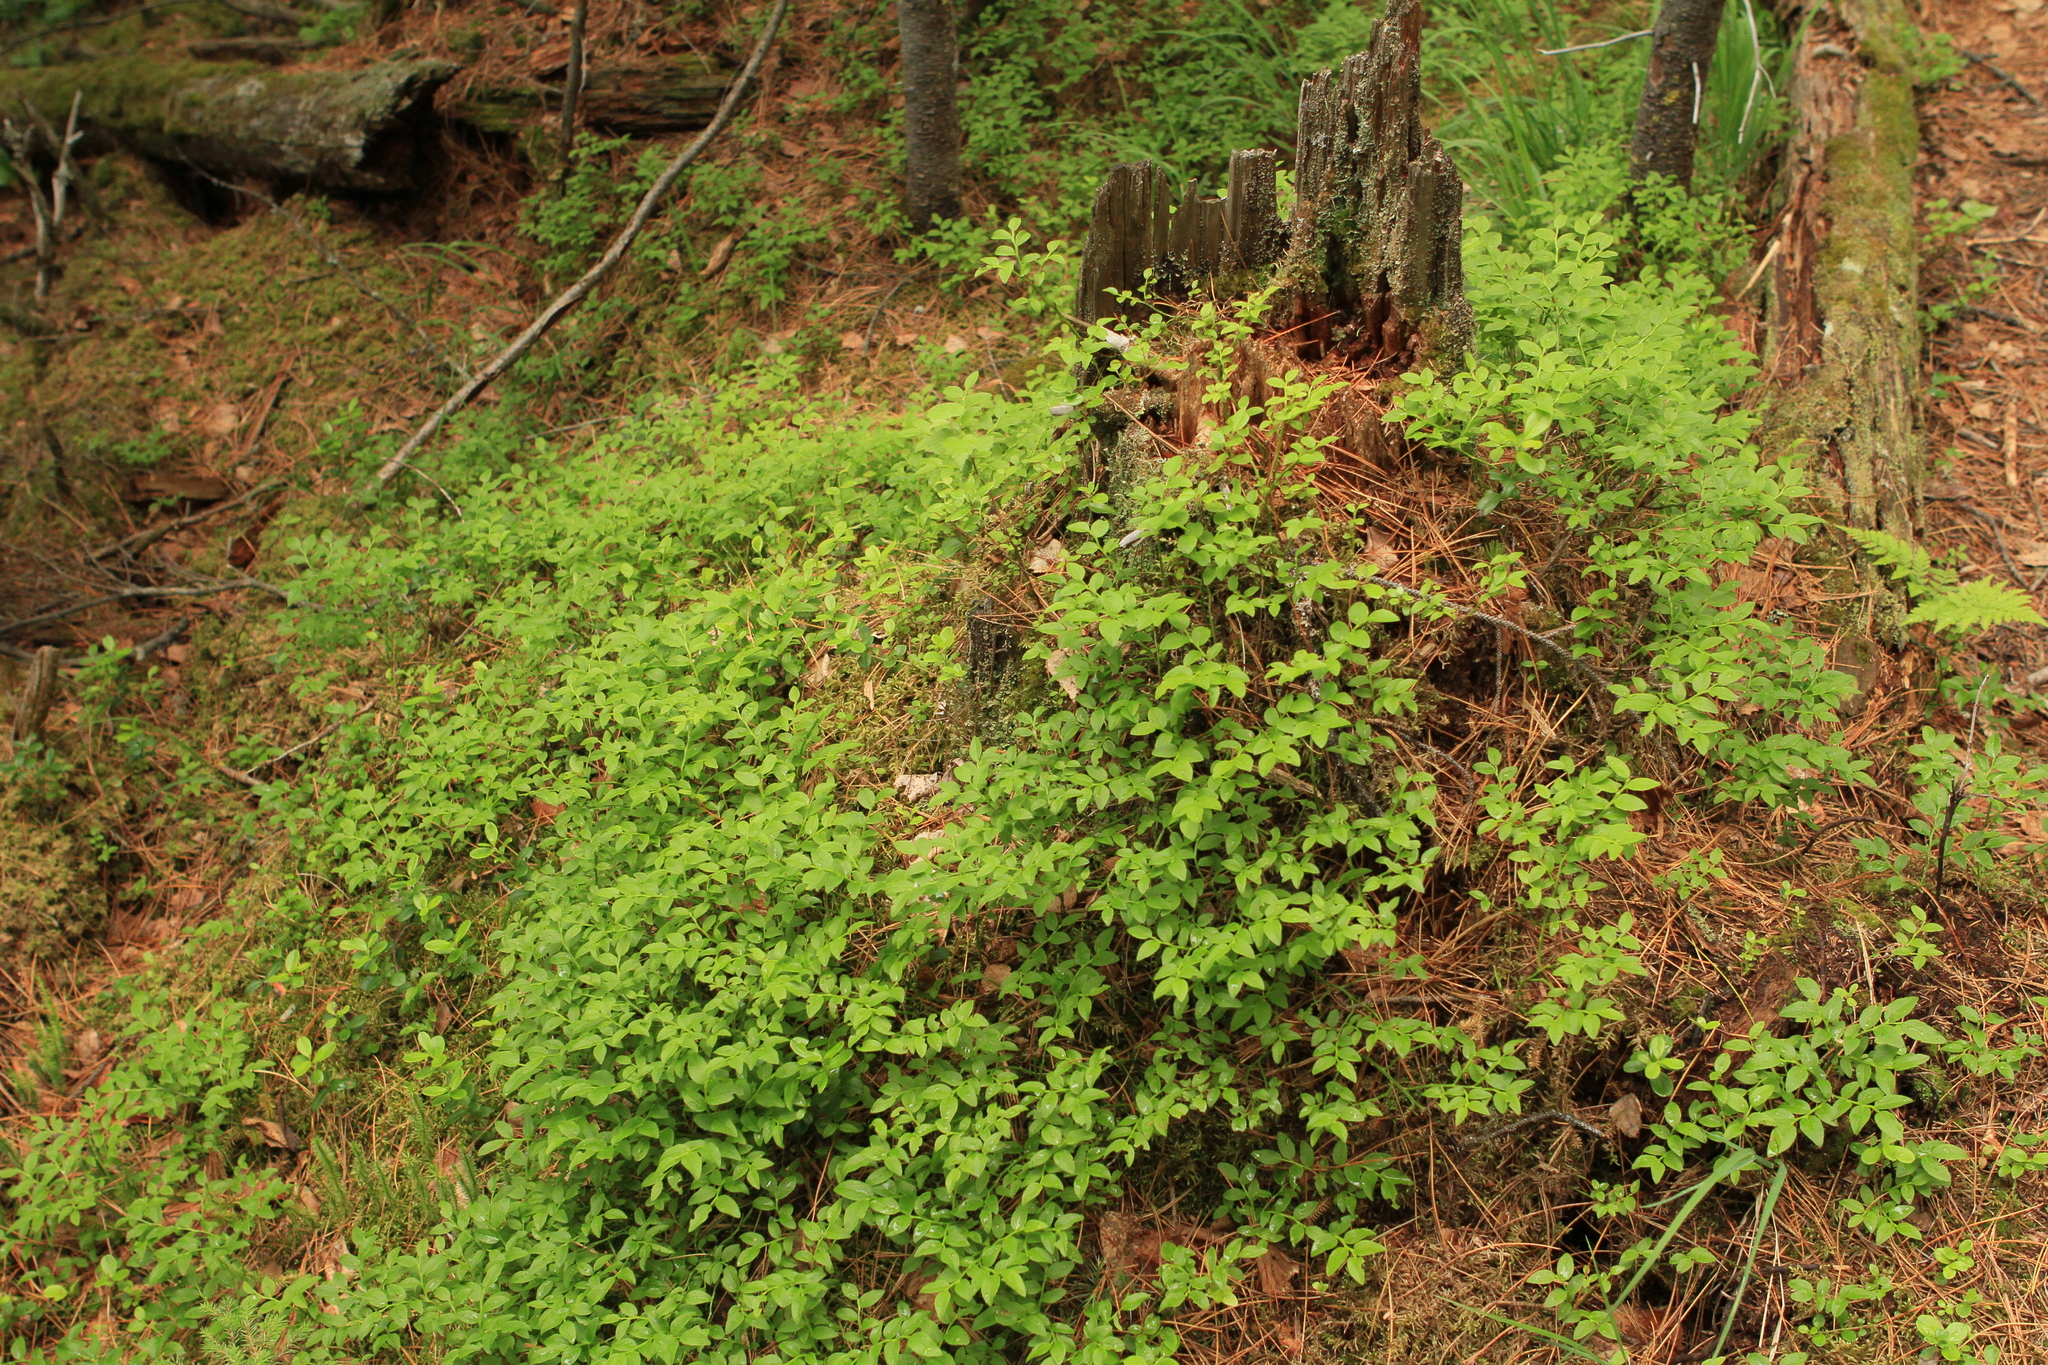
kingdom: Plantae
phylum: Tracheophyta
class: Magnoliopsida
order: Ericales
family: Ericaceae
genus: Vaccinium
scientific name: Vaccinium myrtillus
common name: Bilberry
